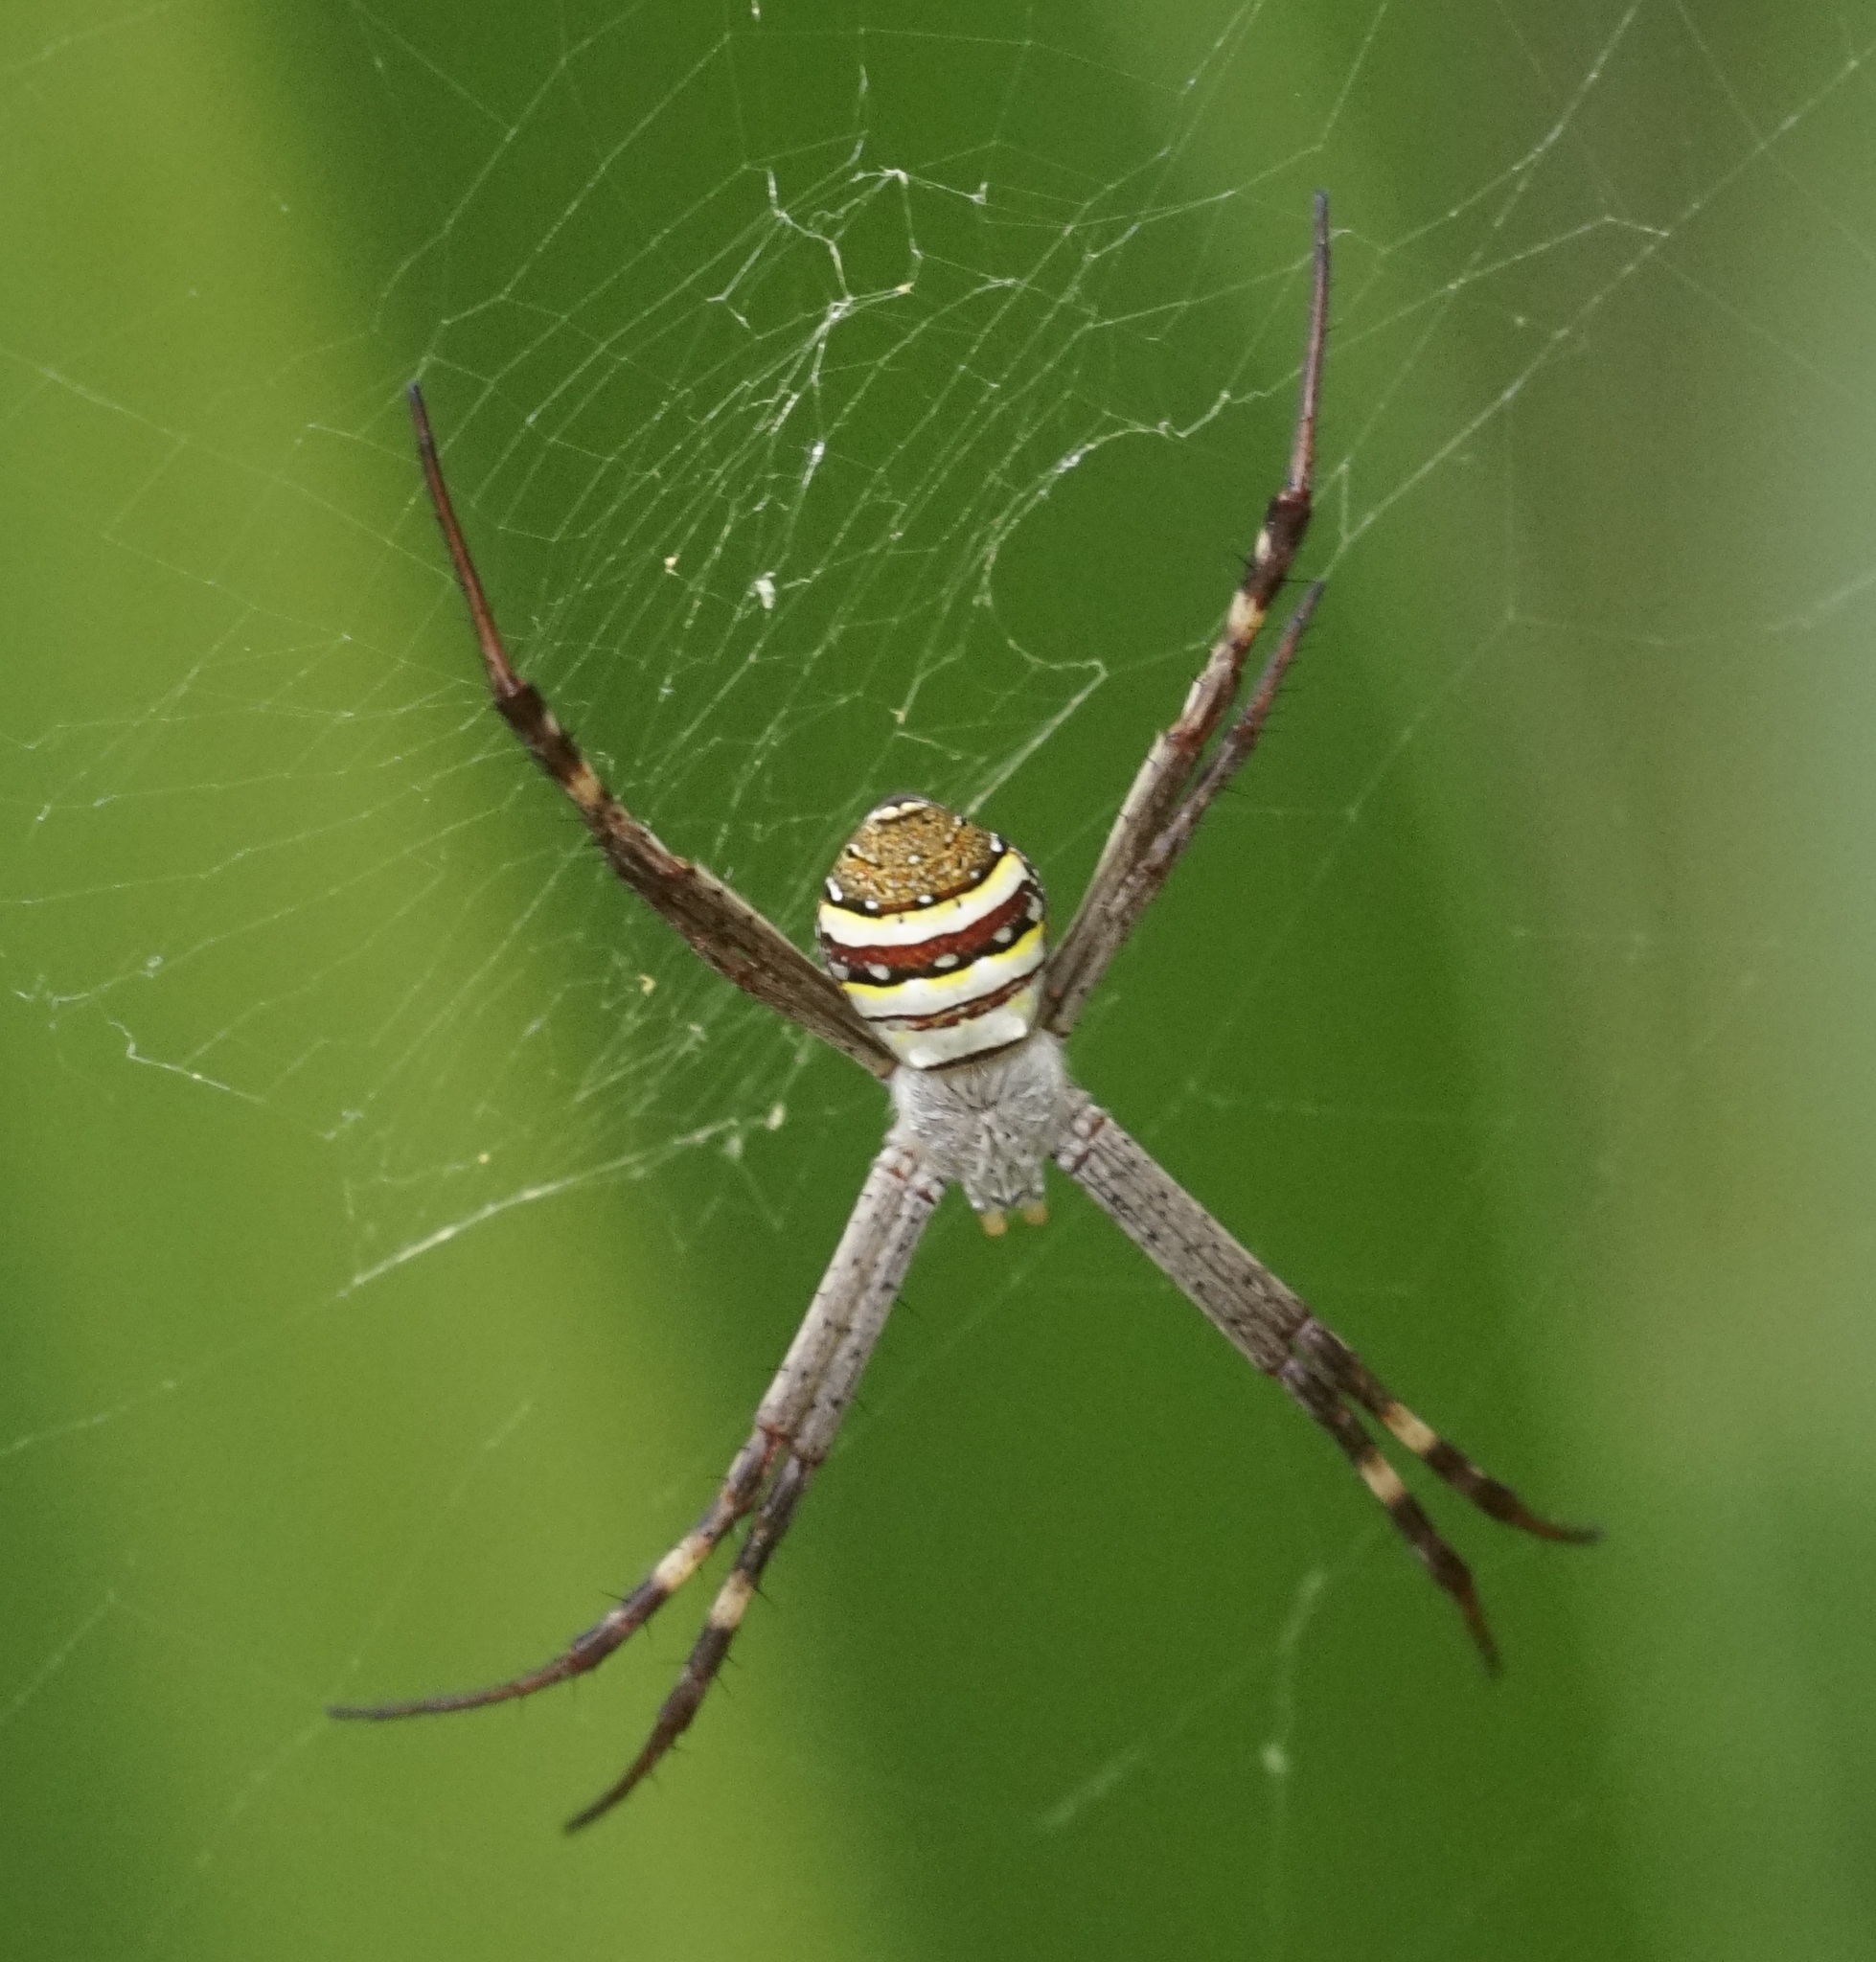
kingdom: Animalia
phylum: Arthropoda
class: Arachnida
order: Araneae
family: Araneidae
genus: Argiope
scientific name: Argiope keyserlingi
